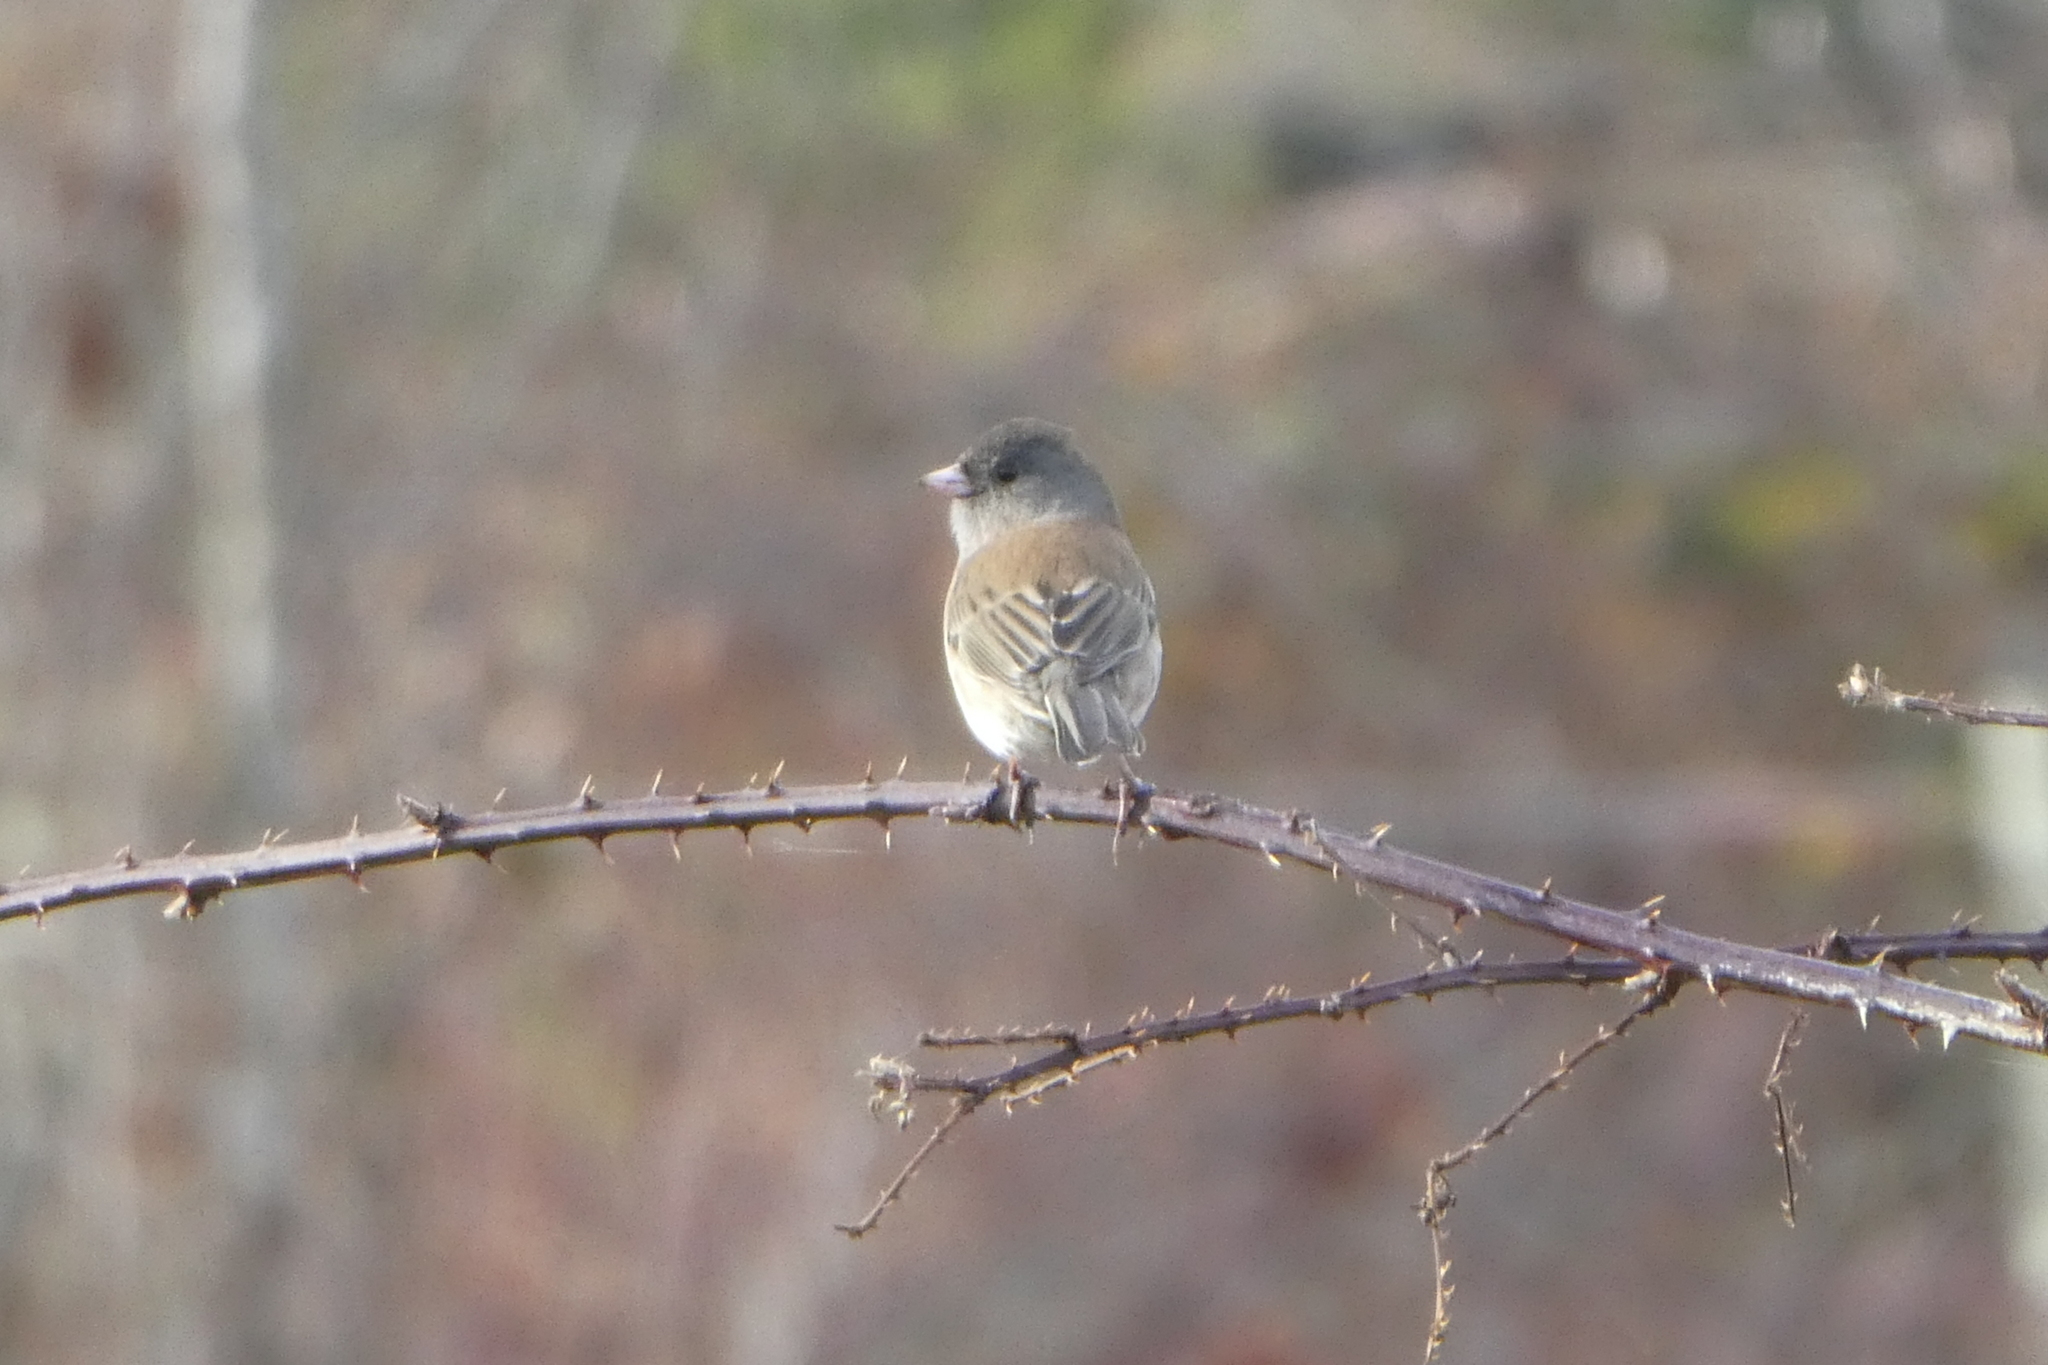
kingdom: Animalia
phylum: Chordata
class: Aves
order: Passeriformes
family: Passerellidae
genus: Junco
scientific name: Junco hyemalis
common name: Dark-eyed junco
